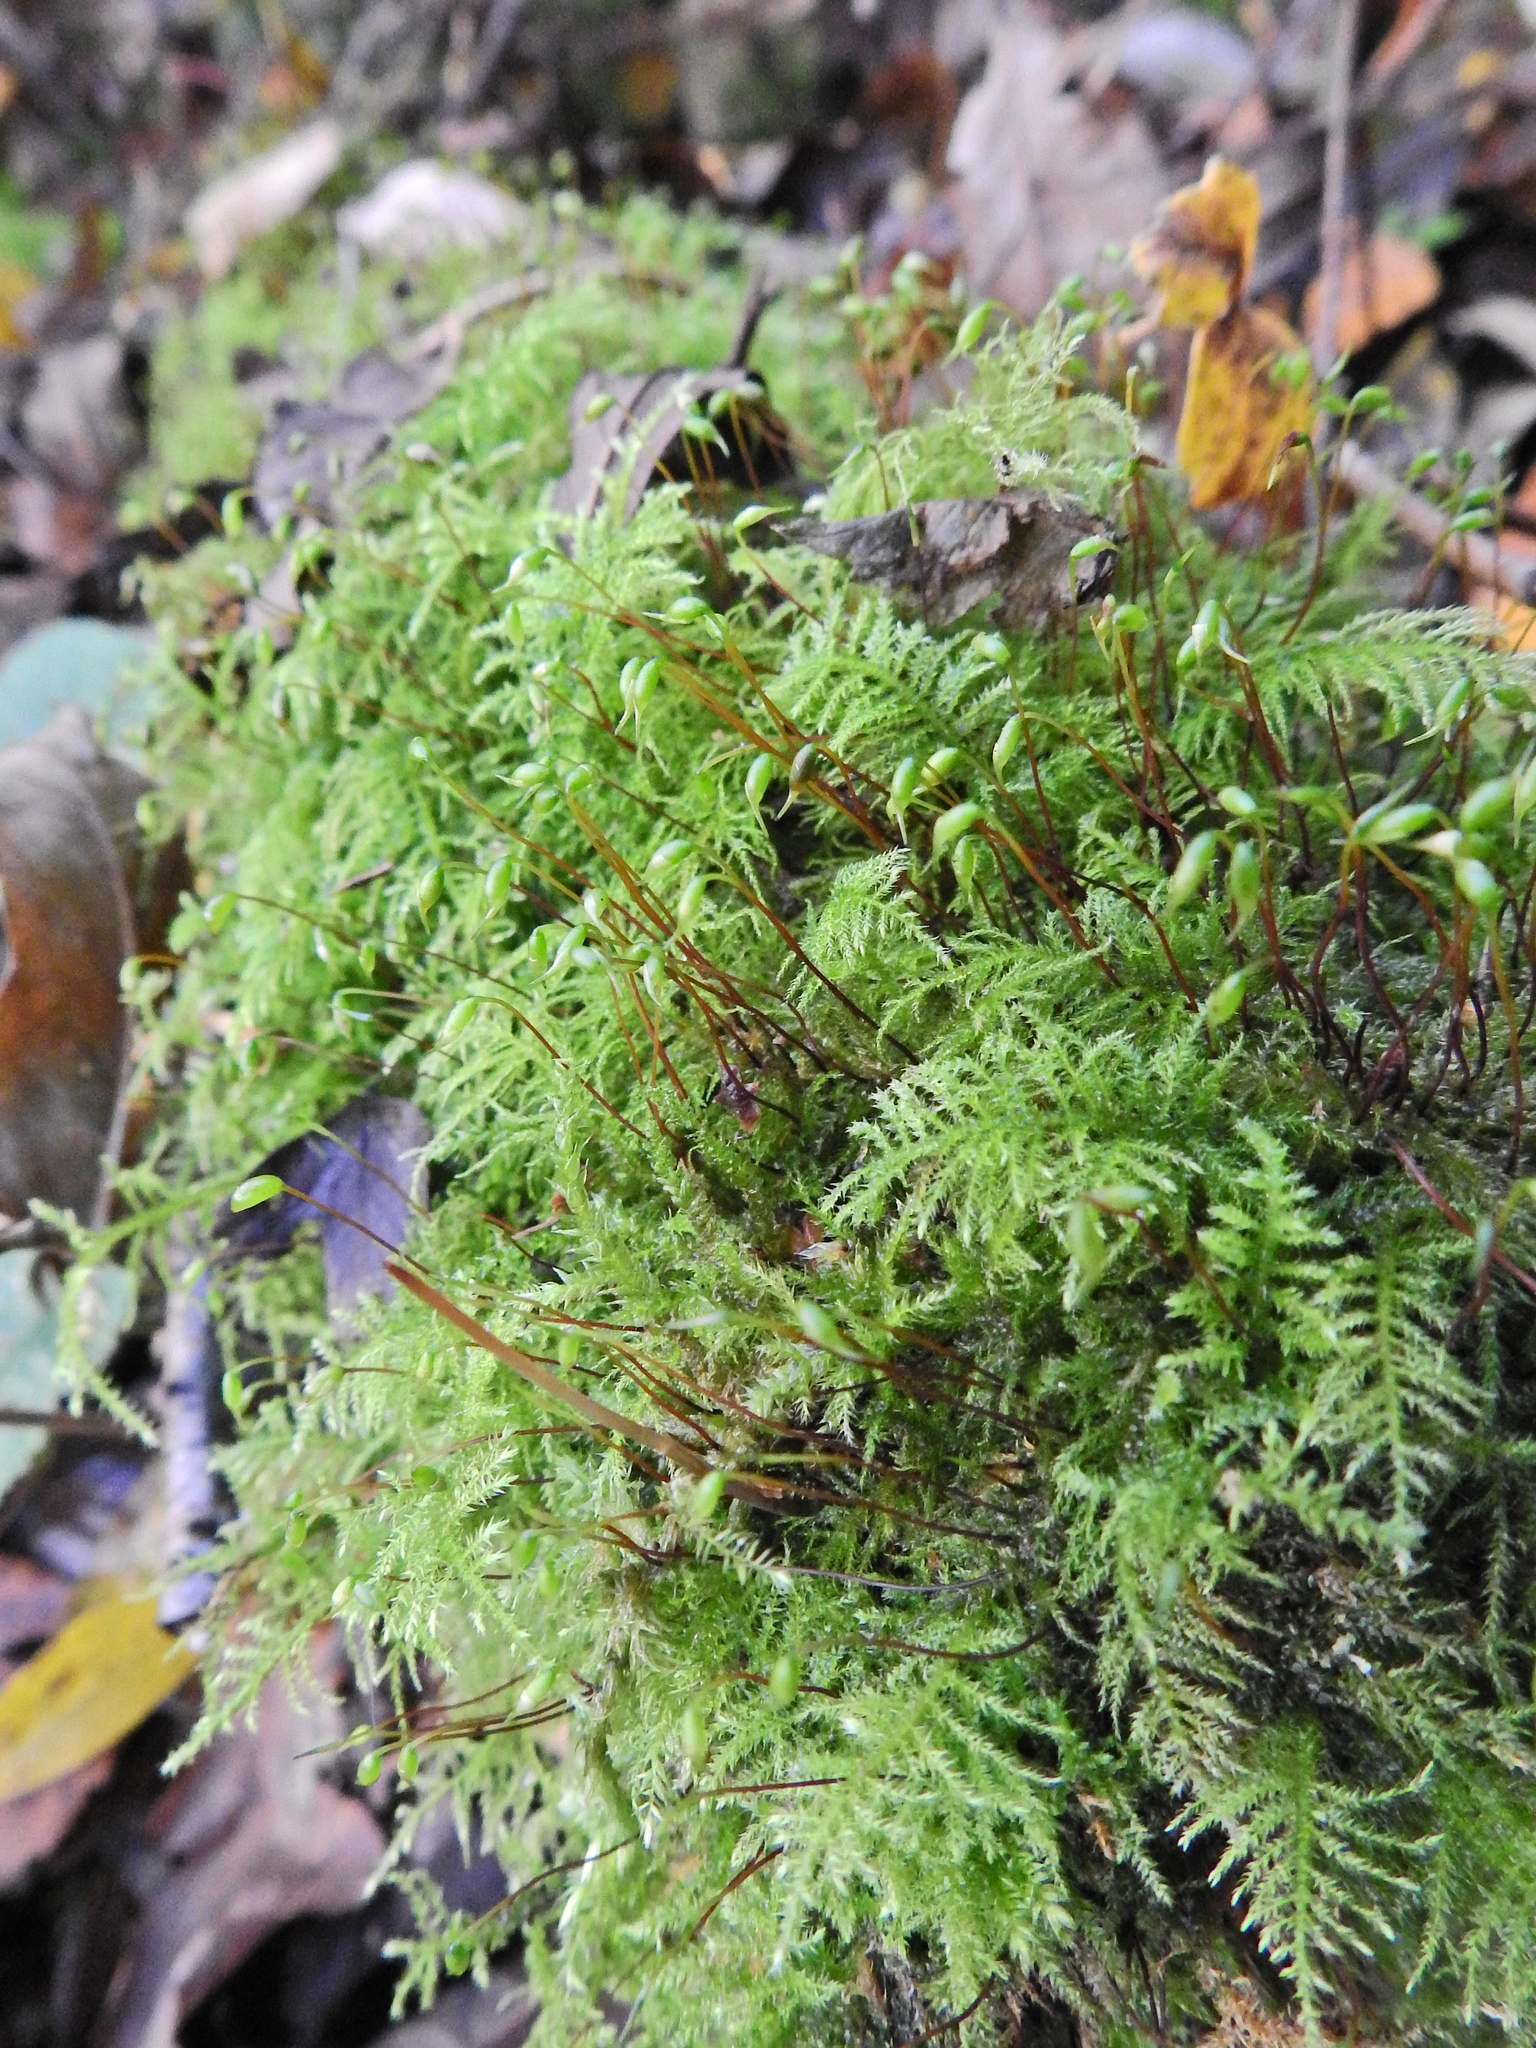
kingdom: Plantae
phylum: Bryophyta
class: Bryopsida
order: Hypnales
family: Brachytheciaceae
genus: Kindbergia
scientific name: Kindbergia praelonga
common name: Slender beaked moss
